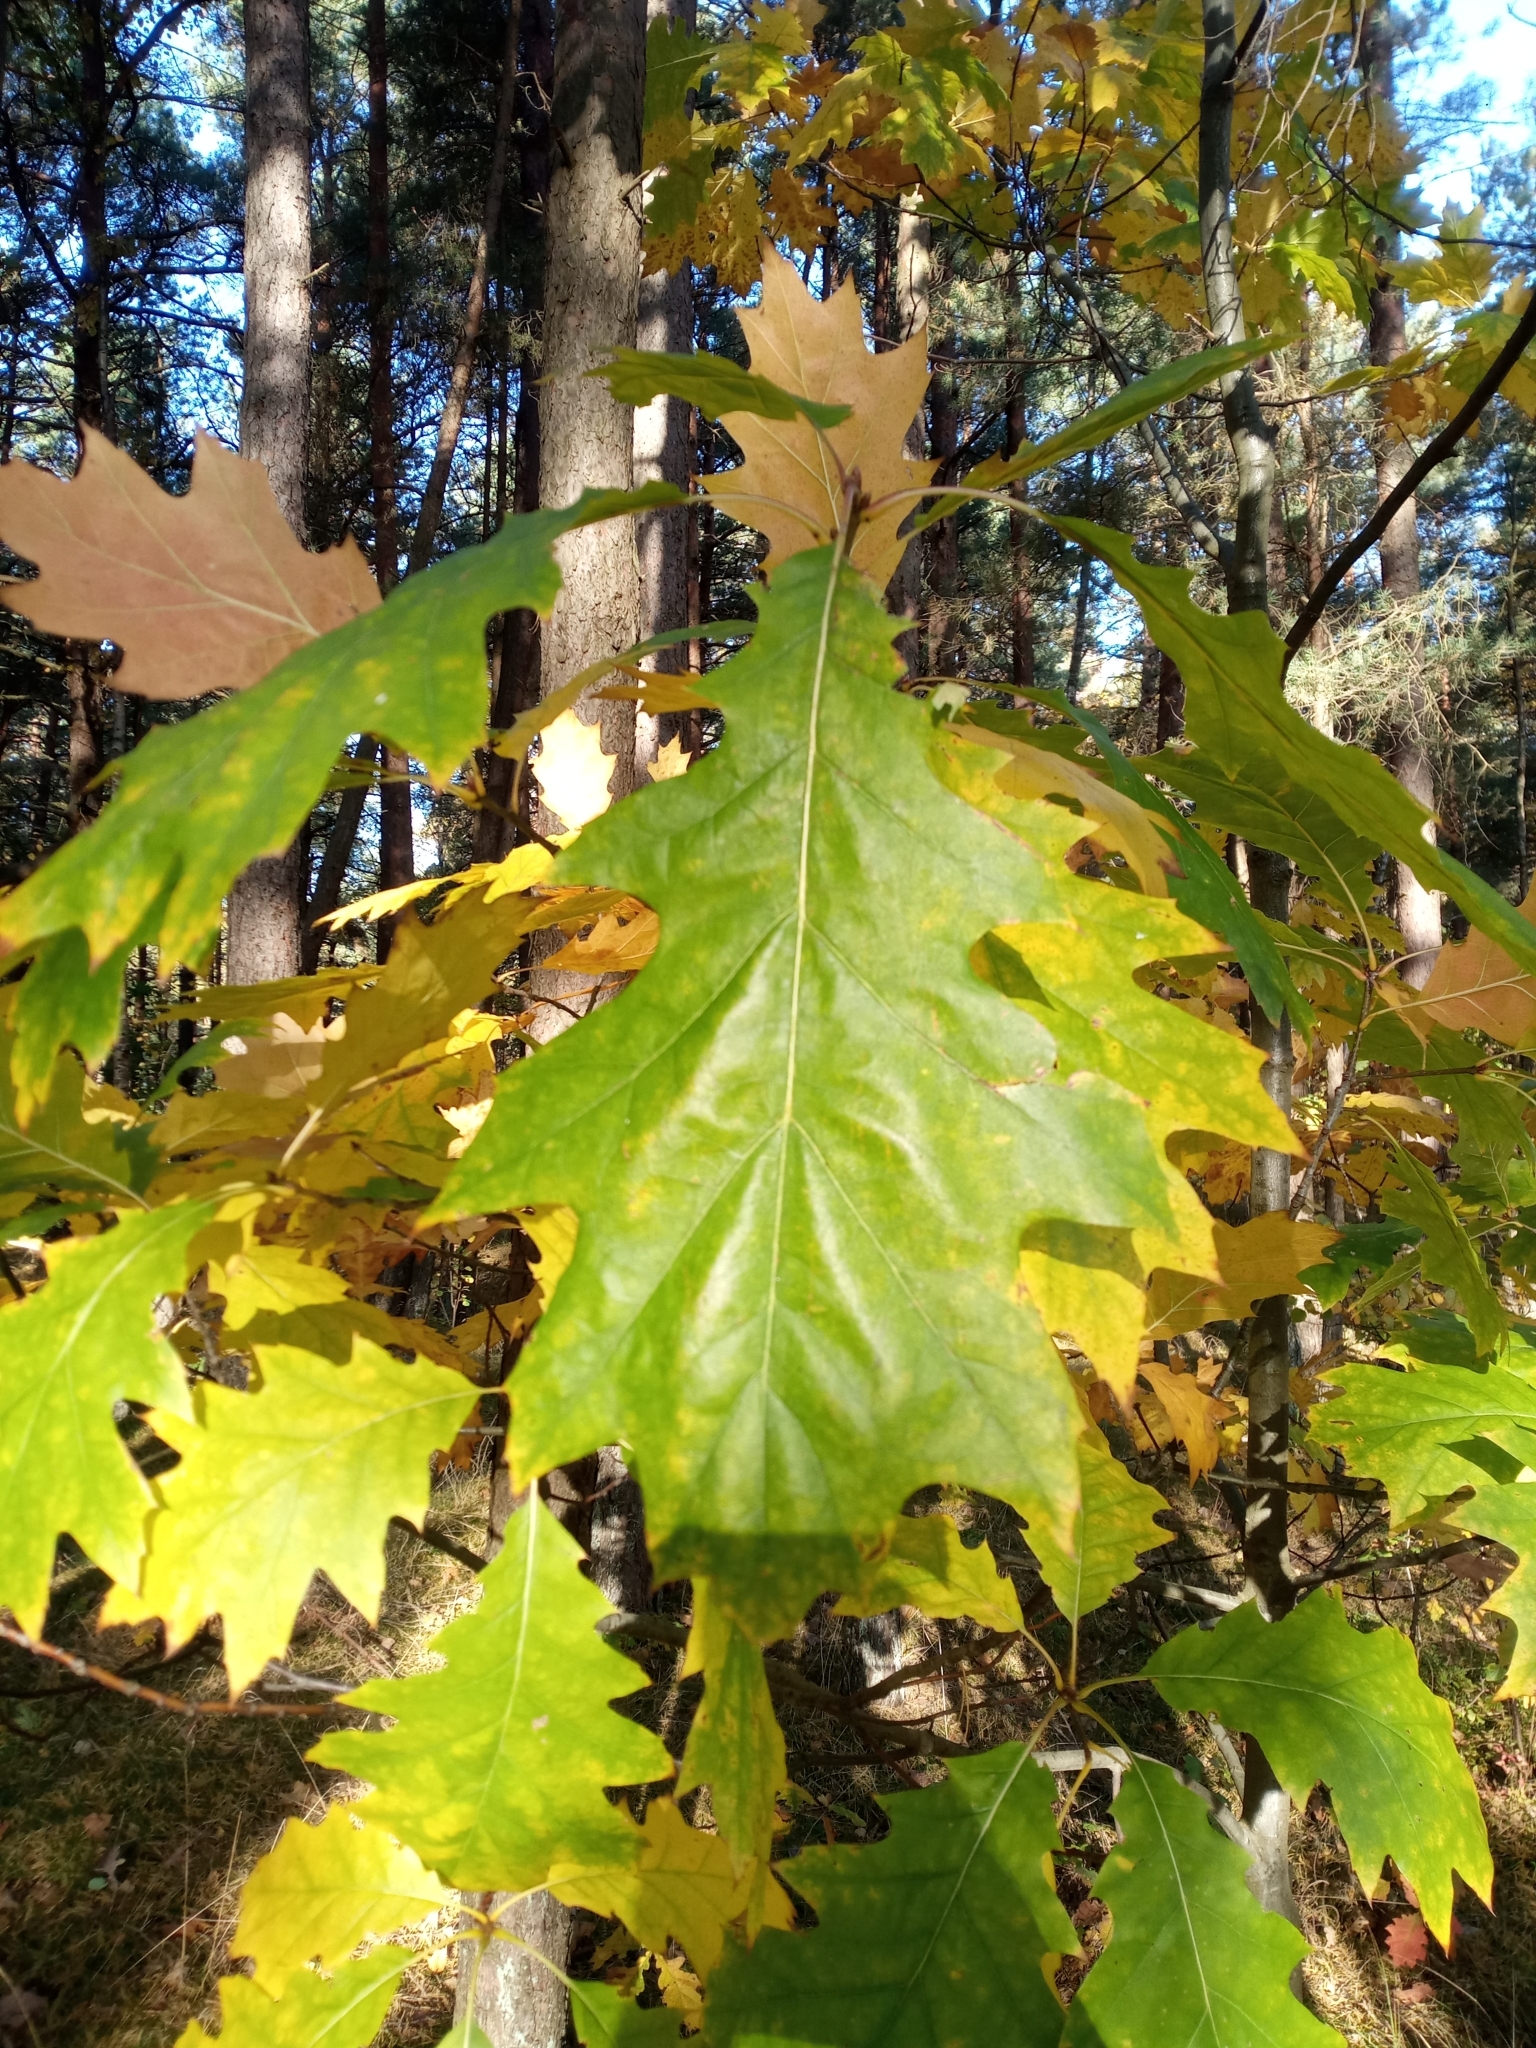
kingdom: Plantae
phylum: Tracheophyta
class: Magnoliopsida
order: Fagales
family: Fagaceae
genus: Quercus
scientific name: Quercus rubra
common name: Red oak
